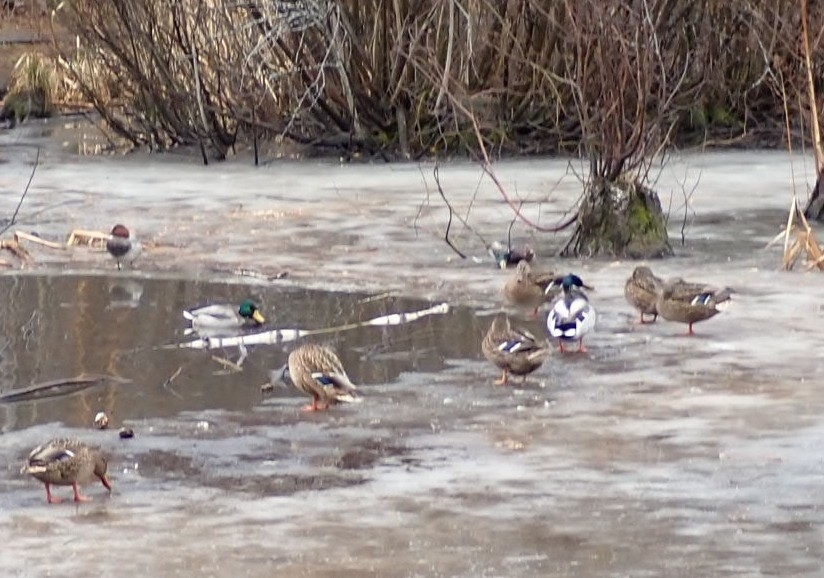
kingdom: Animalia
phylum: Chordata
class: Aves
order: Anseriformes
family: Anatidae
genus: Anas
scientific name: Anas platyrhynchos
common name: Mallard
